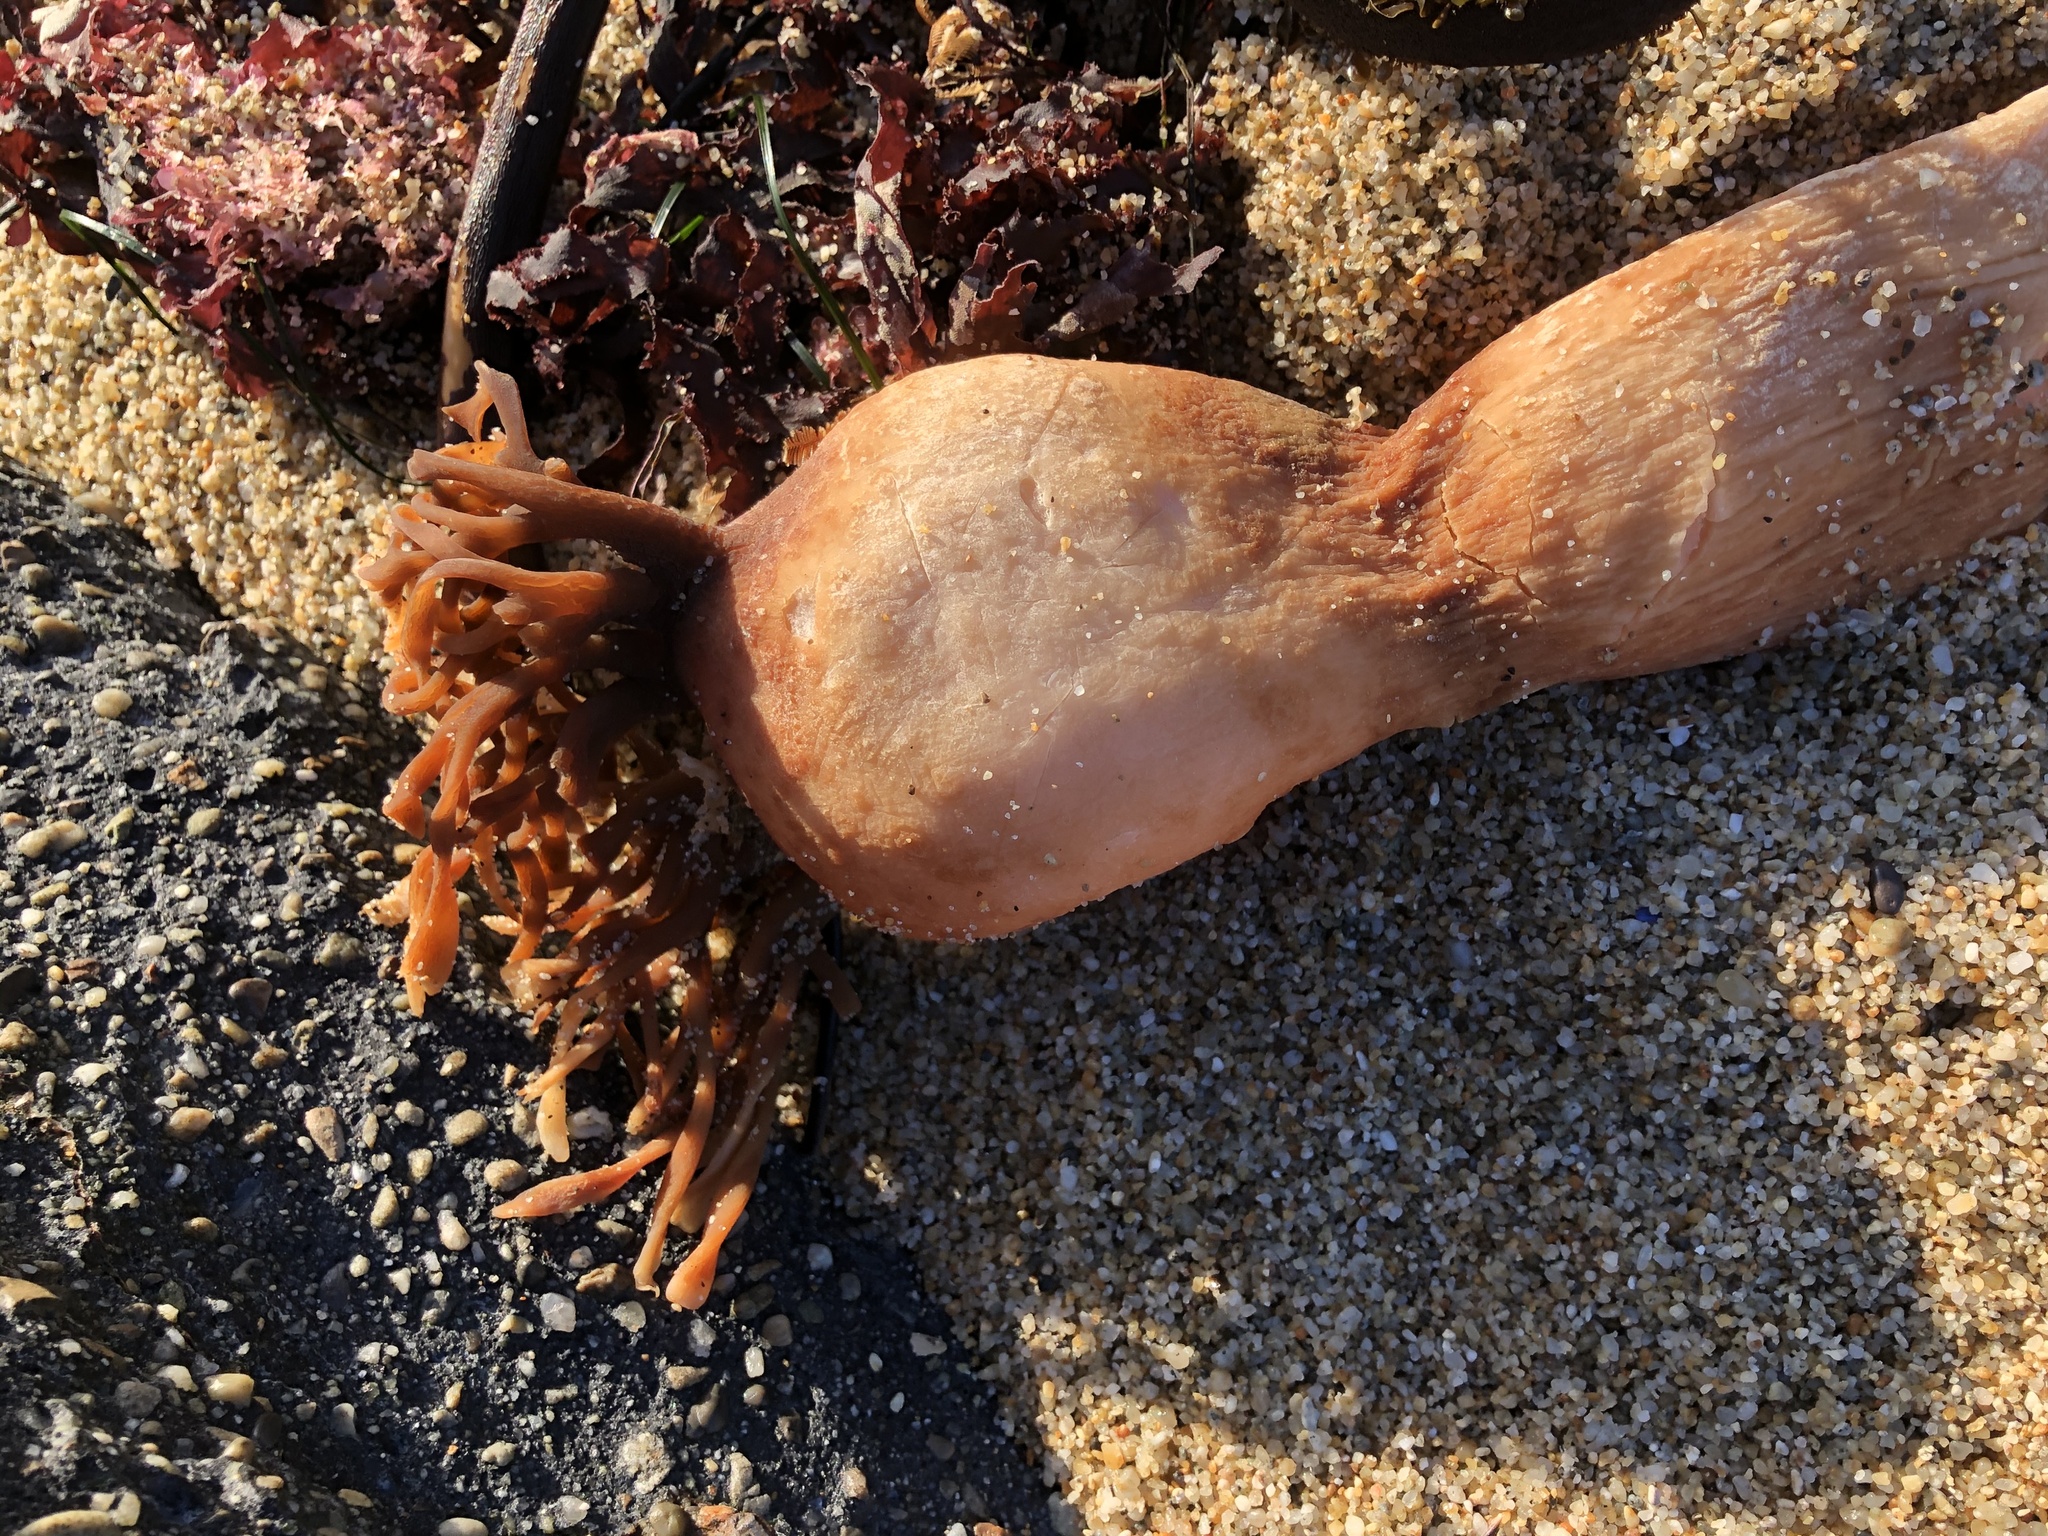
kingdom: Chromista
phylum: Ochrophyta
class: Phaeophyceae
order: Laminariales
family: Laminariaceae
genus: Nereocystis
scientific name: Nereocystis luetkeana
